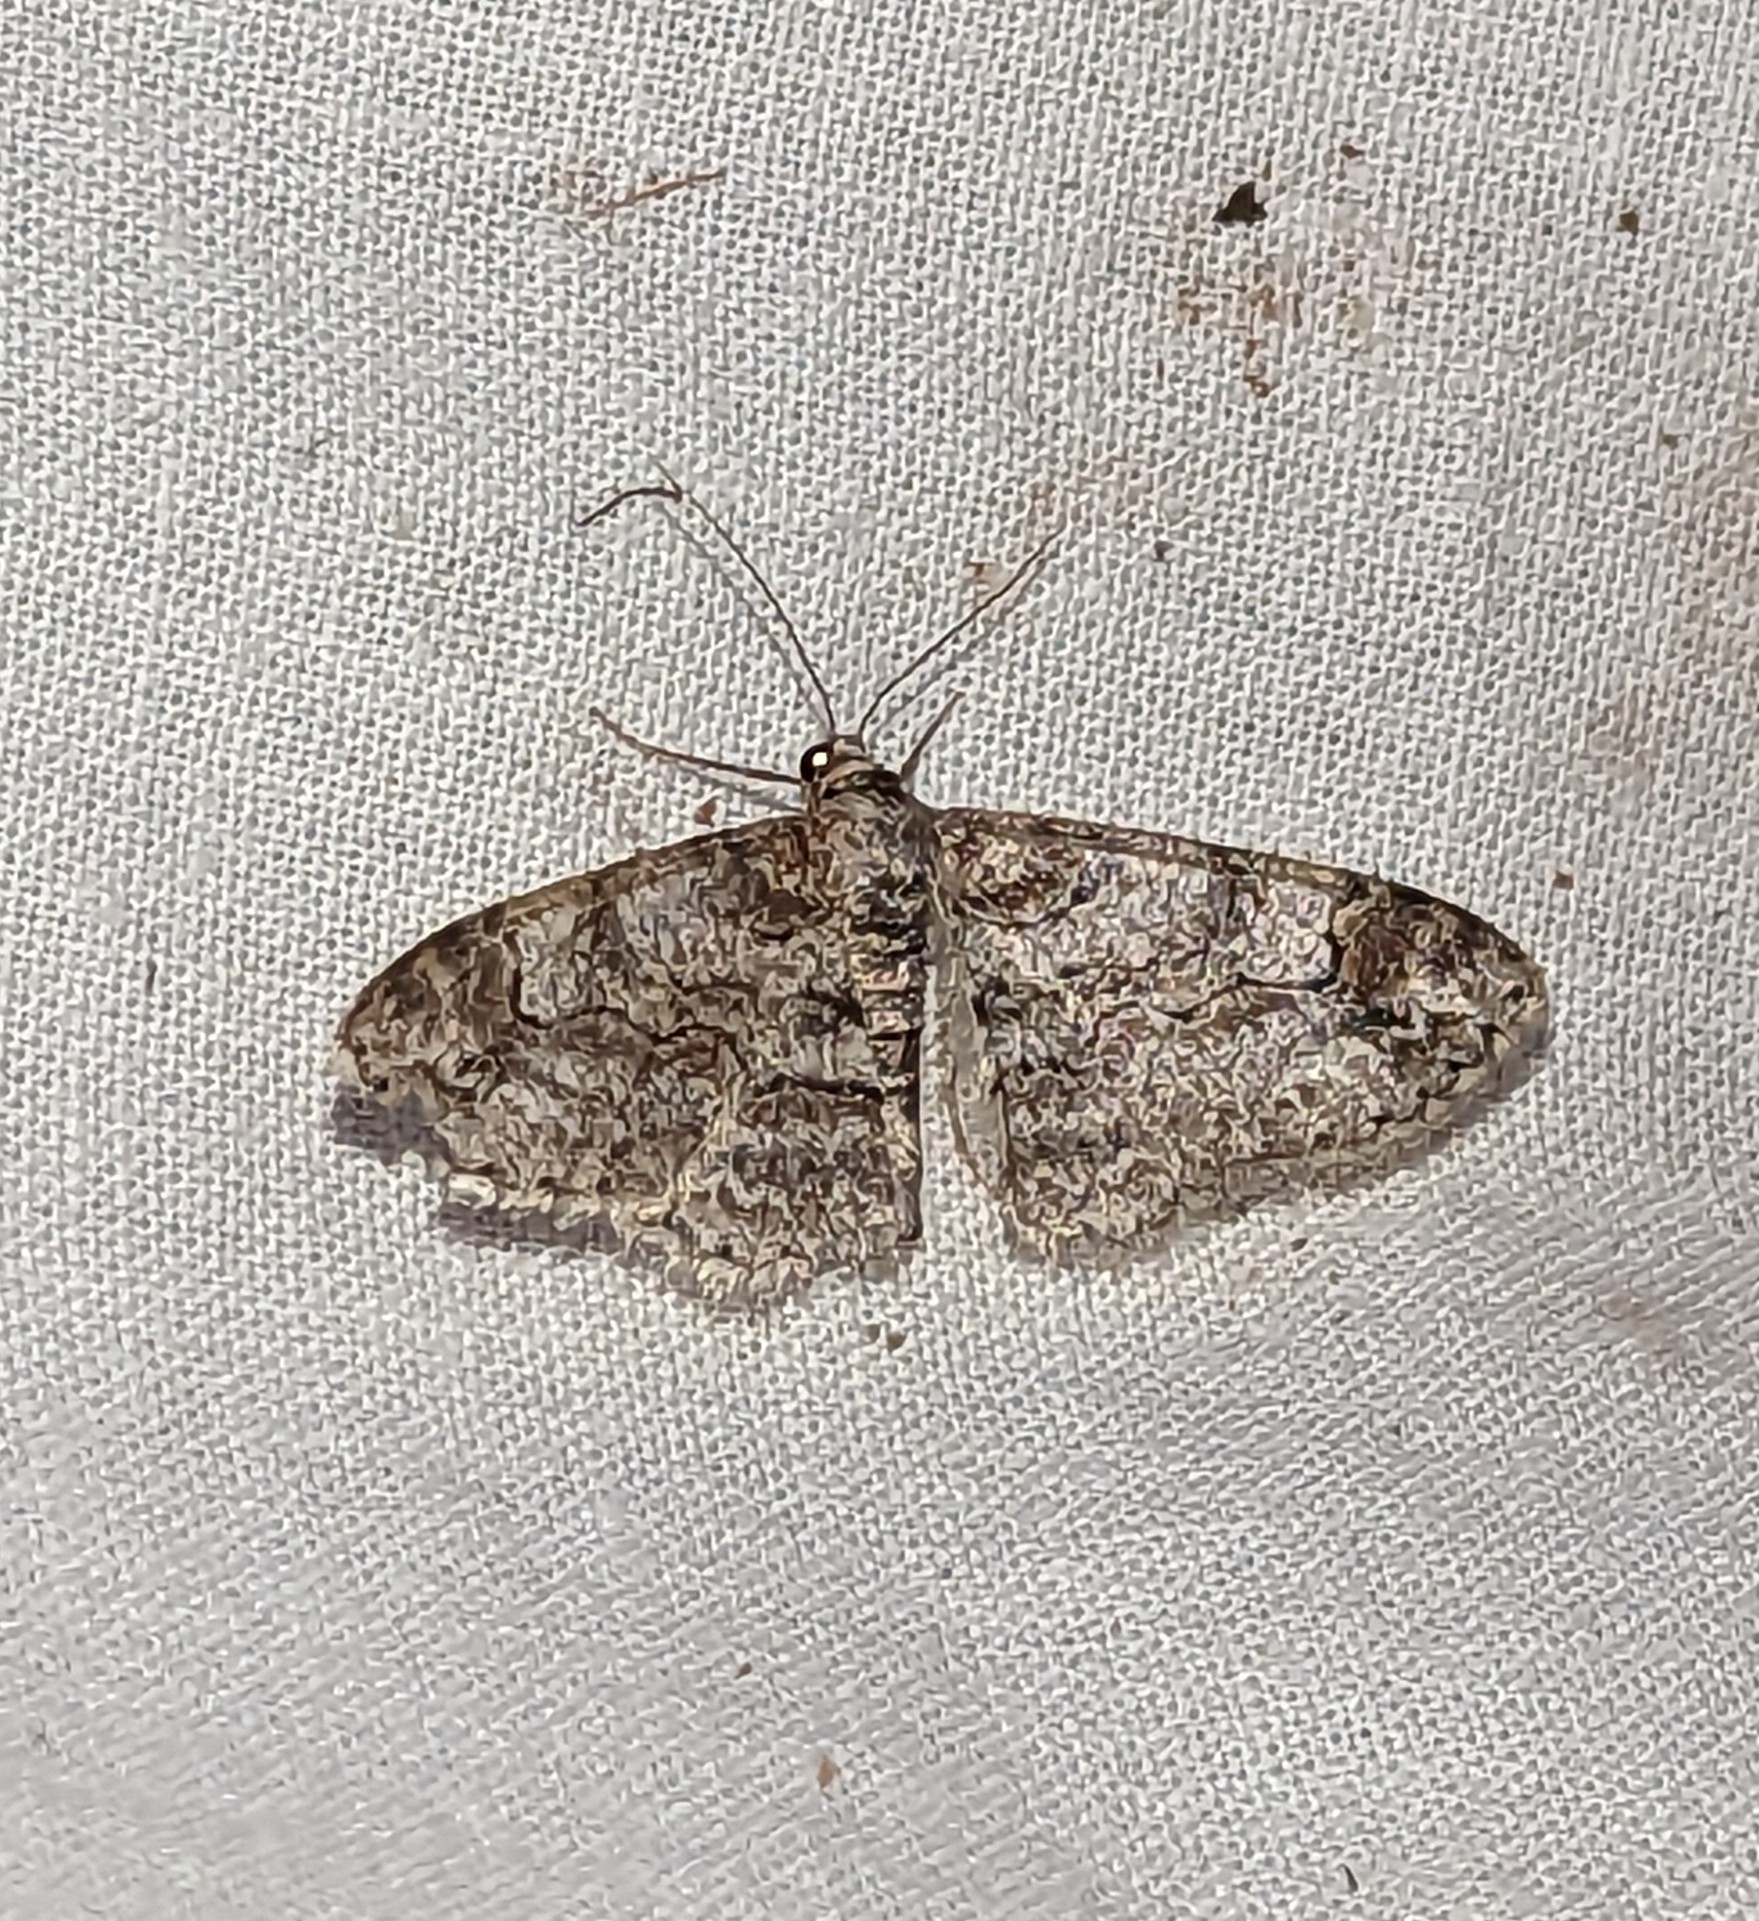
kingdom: Animalia
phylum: Arthropoda
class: Insecta
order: Lepidoptera
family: Geometridae
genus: Iridopsis
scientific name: Iridopsis emasculatum
